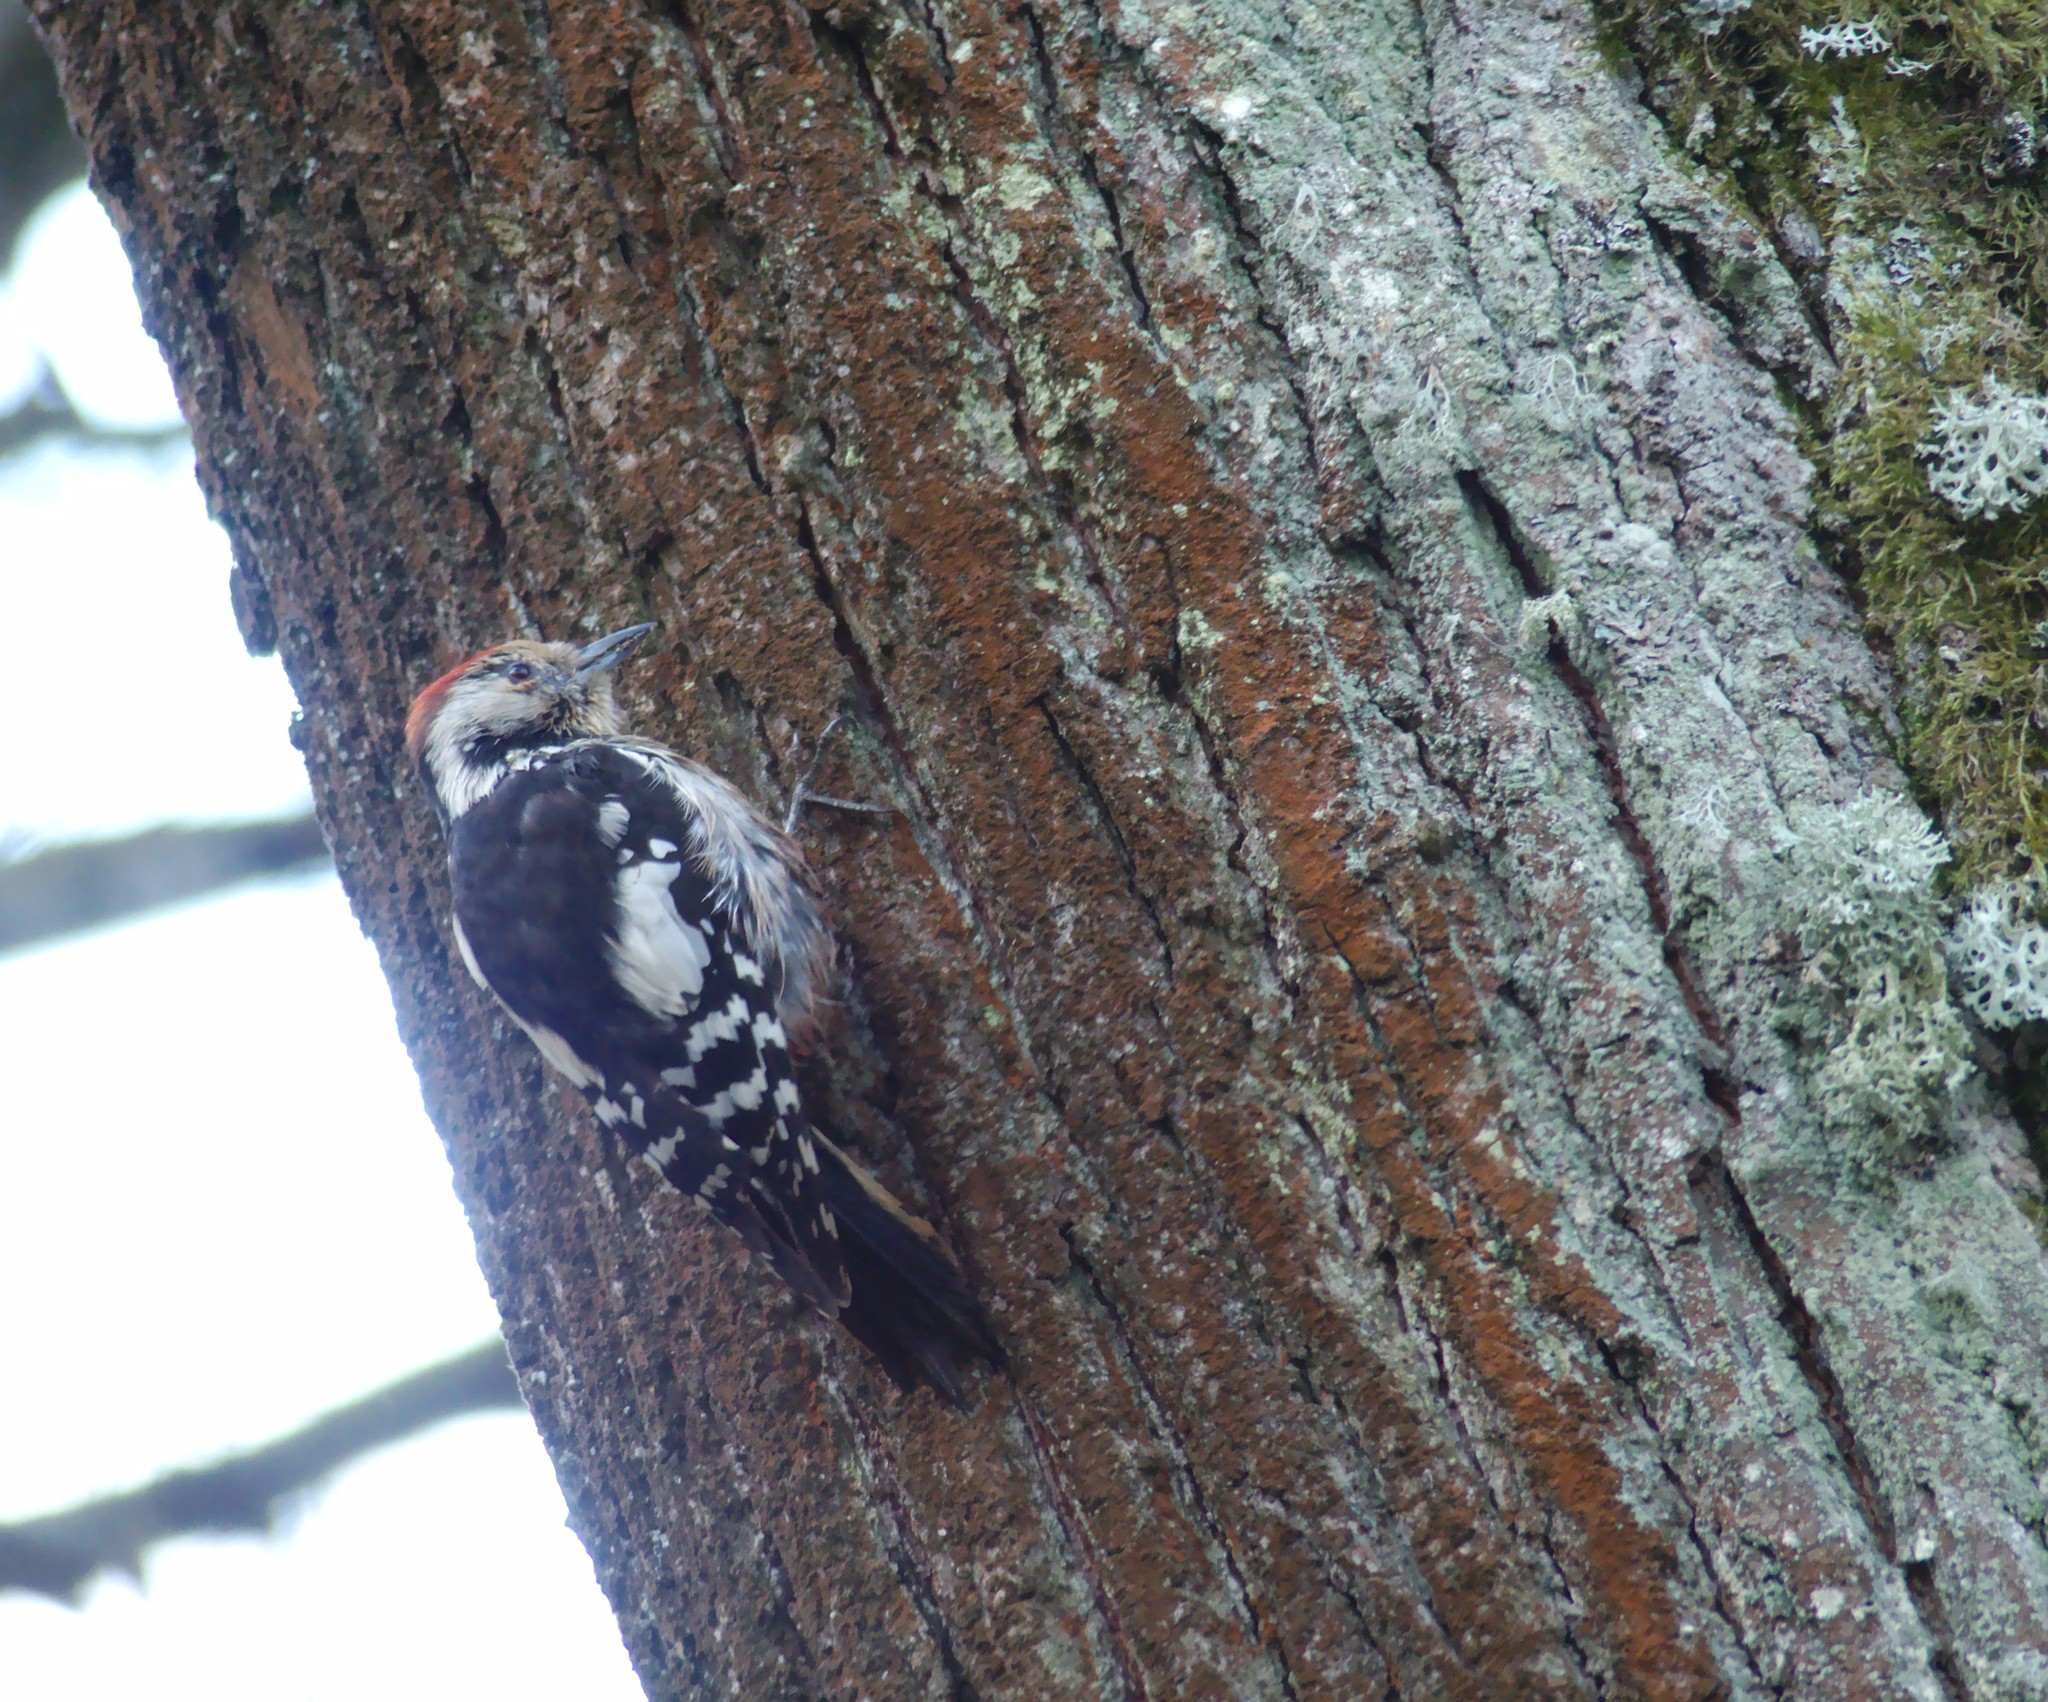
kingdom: Animalia
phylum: Chordata
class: Aves
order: Piciformes
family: Picidae
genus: Dendrocoptes
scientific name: Dendrocoptes medius
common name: Middle spotted woodpecker
